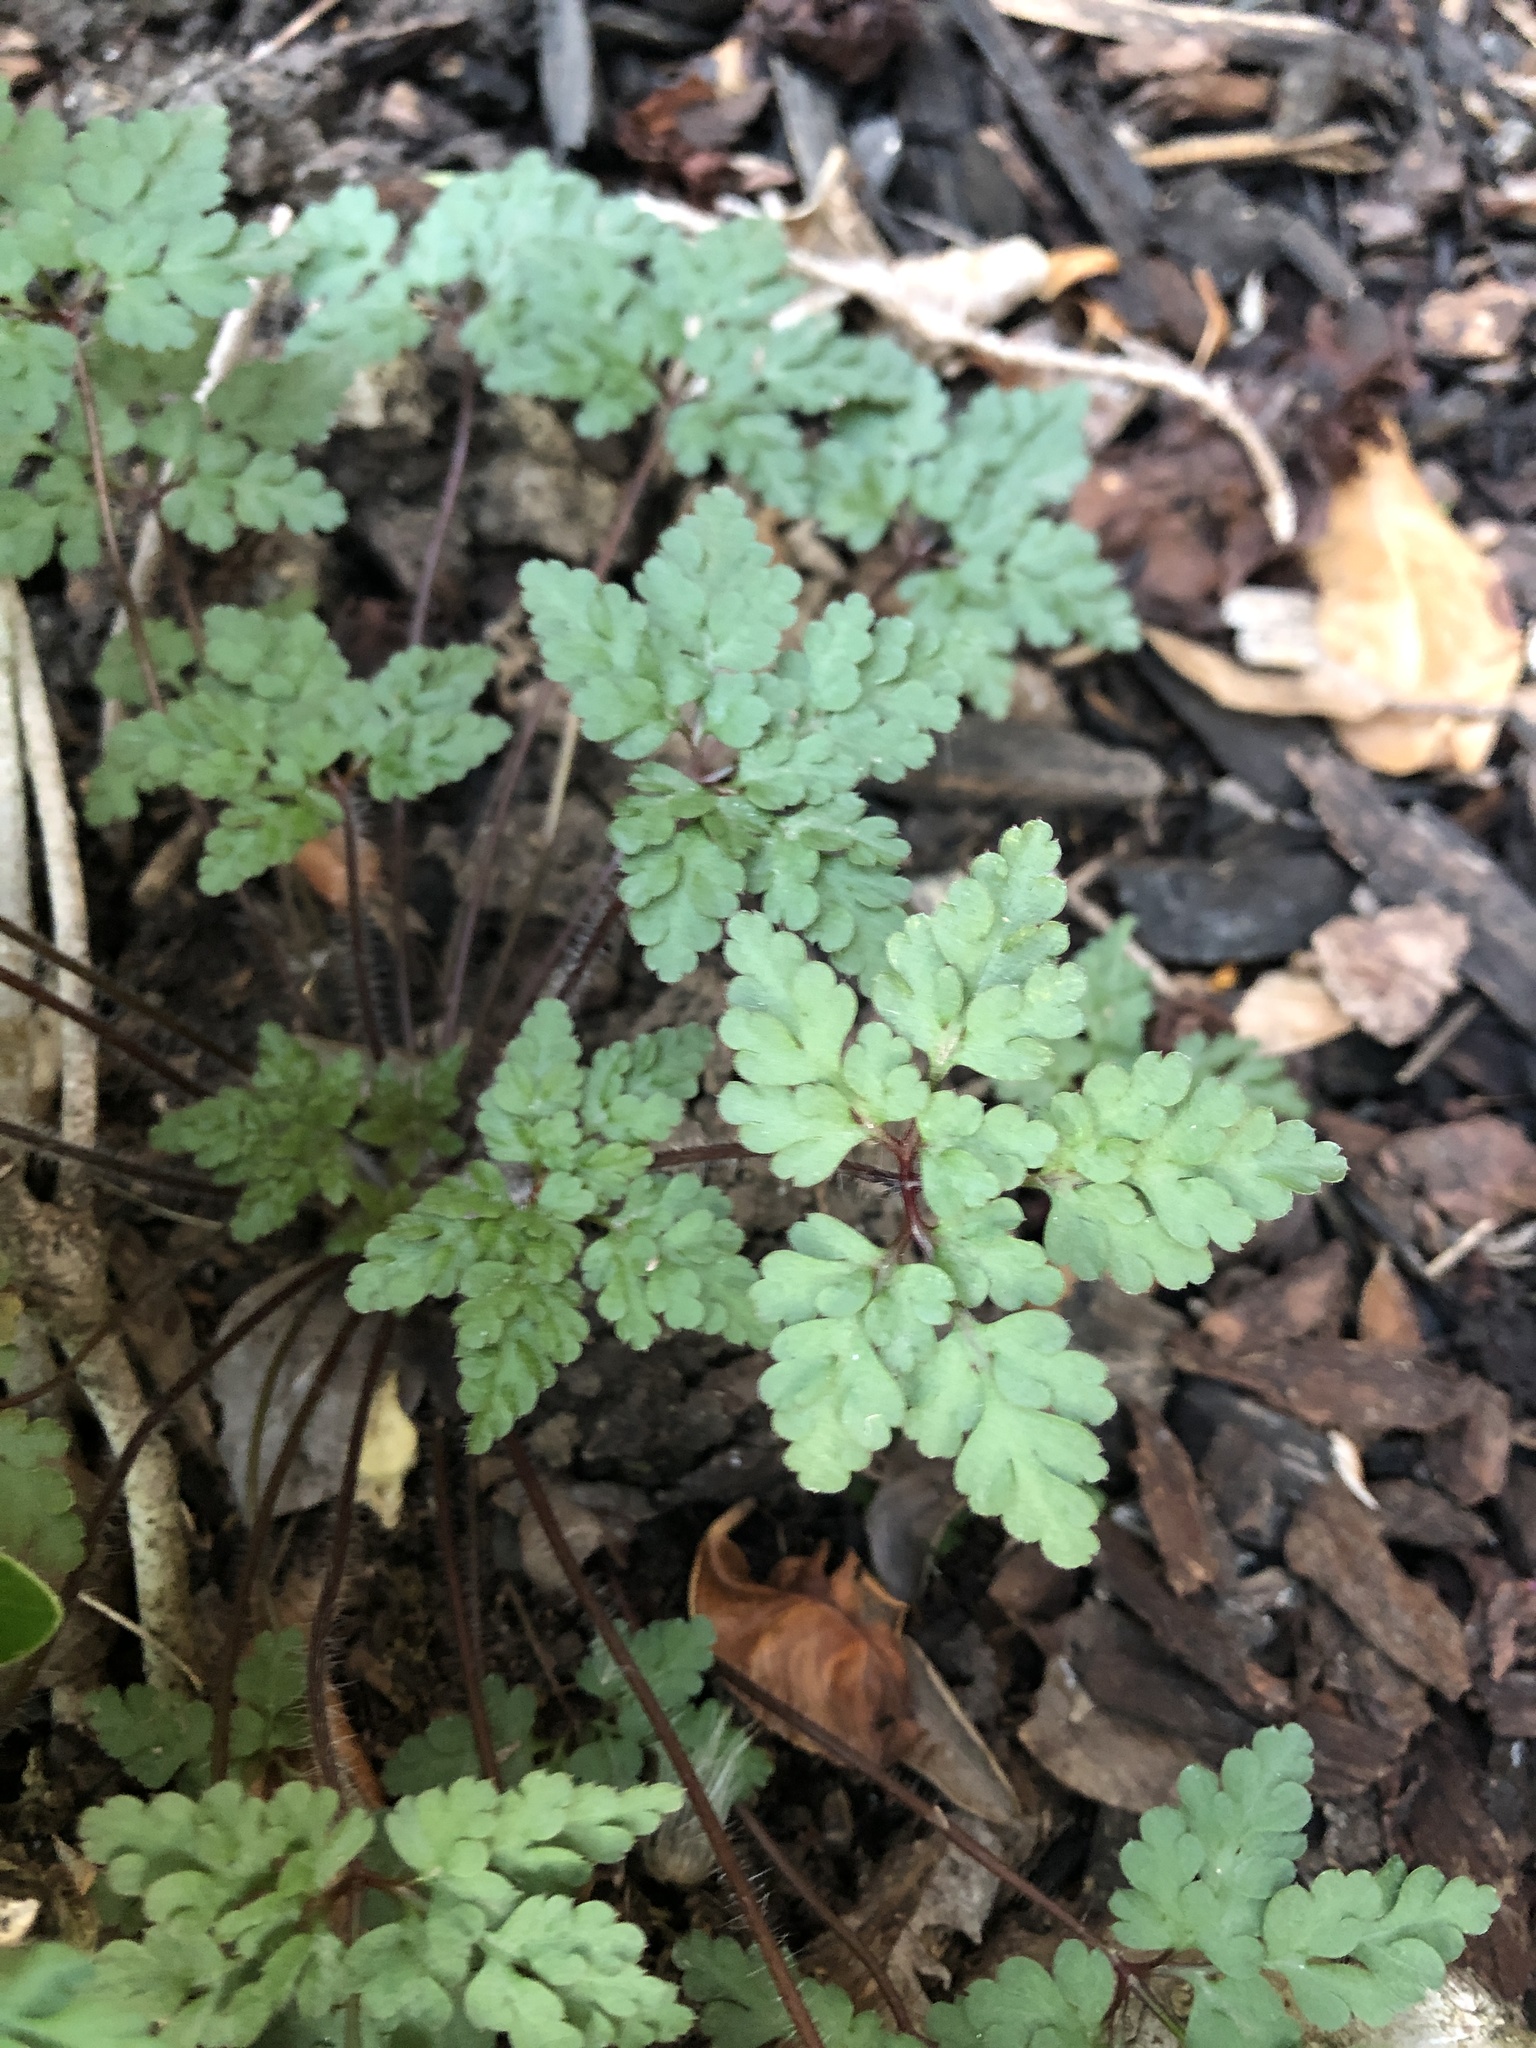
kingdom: Plantae
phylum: Tracheophyta
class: Magnoliopsida
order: Geraniales
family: Geraniaceae
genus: Geranium
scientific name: Geranium
